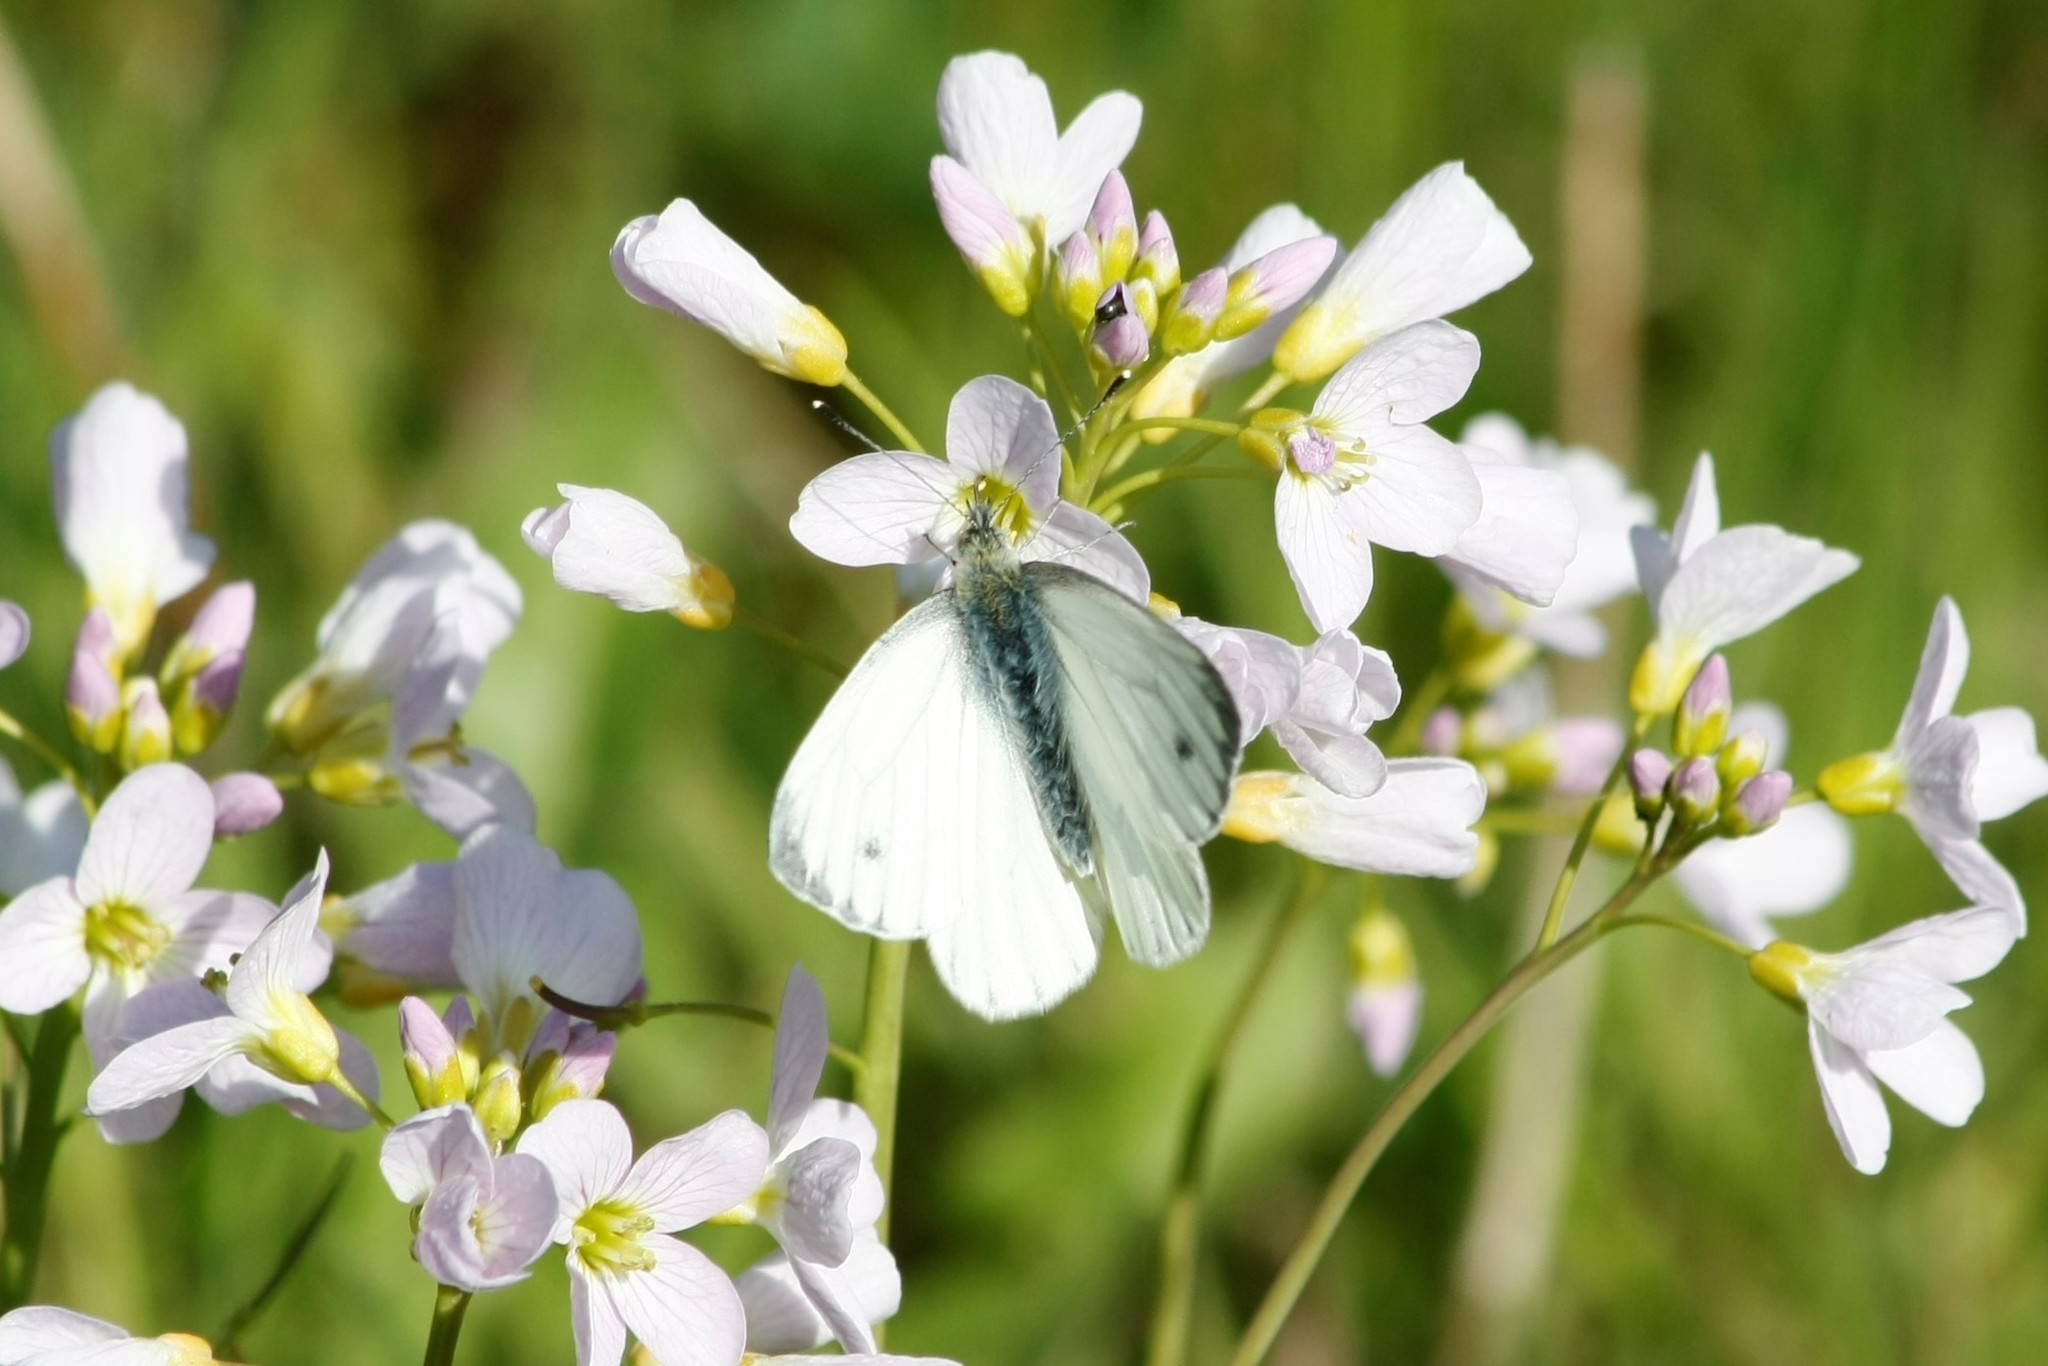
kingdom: Animalia
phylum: Arthropoda
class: Insecta
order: Lepidoptera
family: Pieridae
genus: Pieris
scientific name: Pieris napi
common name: Green-veined white
